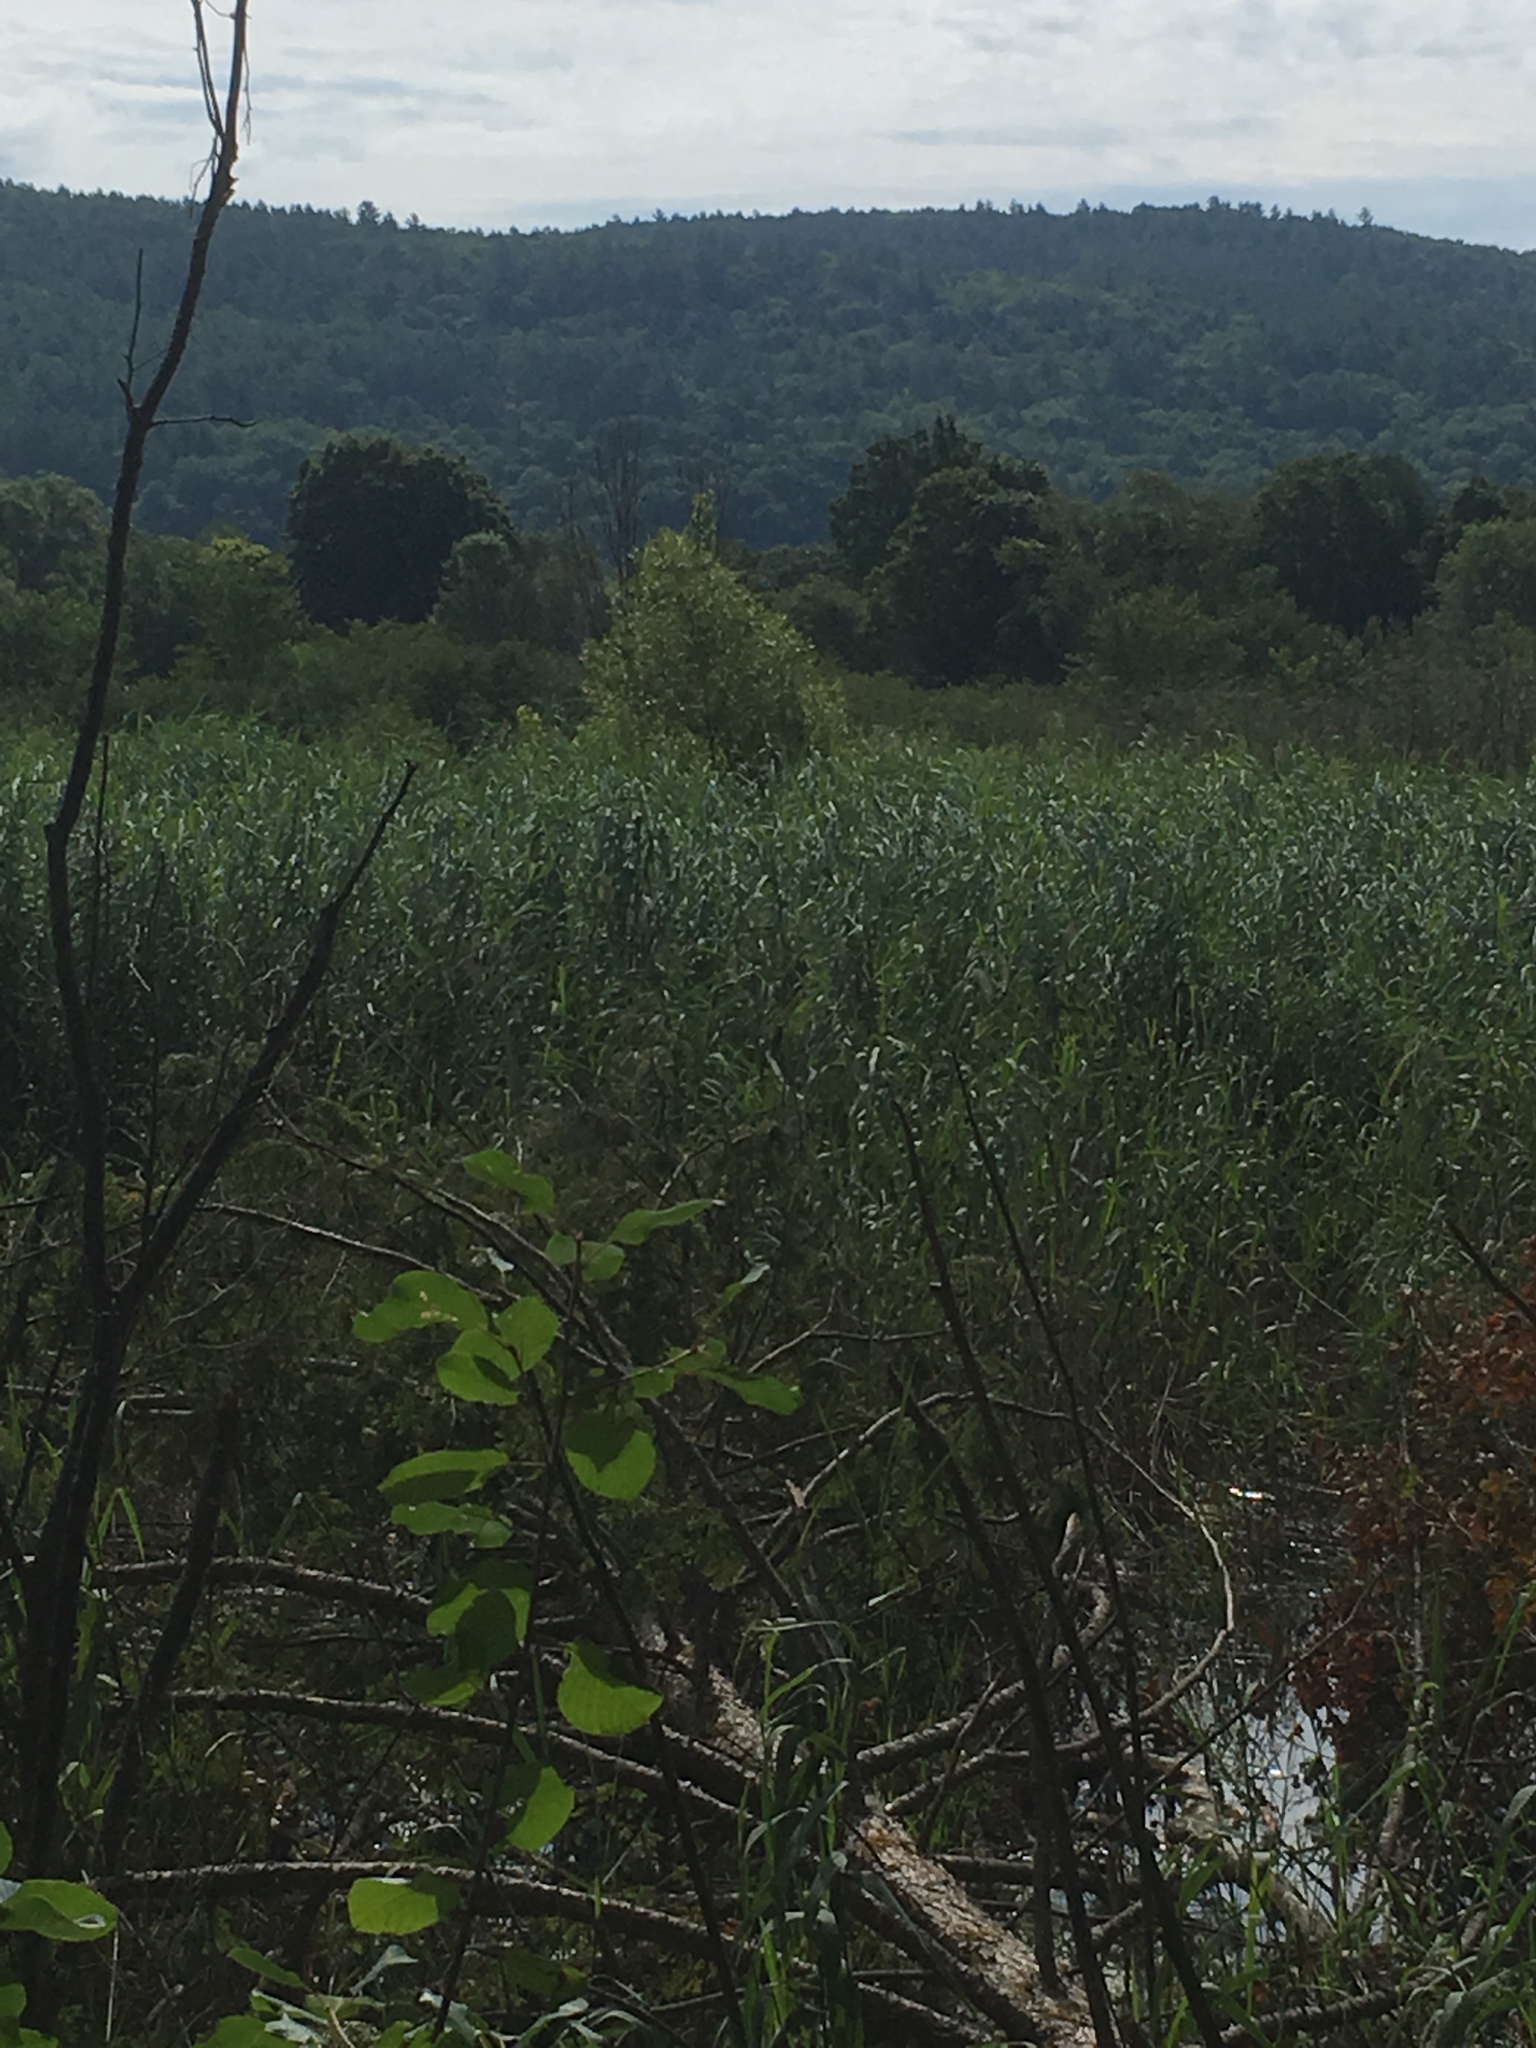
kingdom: Plantae
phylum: Tracheophyta
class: Liliopsida
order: Poales
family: Poaceae
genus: Phragmites
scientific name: Phragmites australis
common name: Common reed
